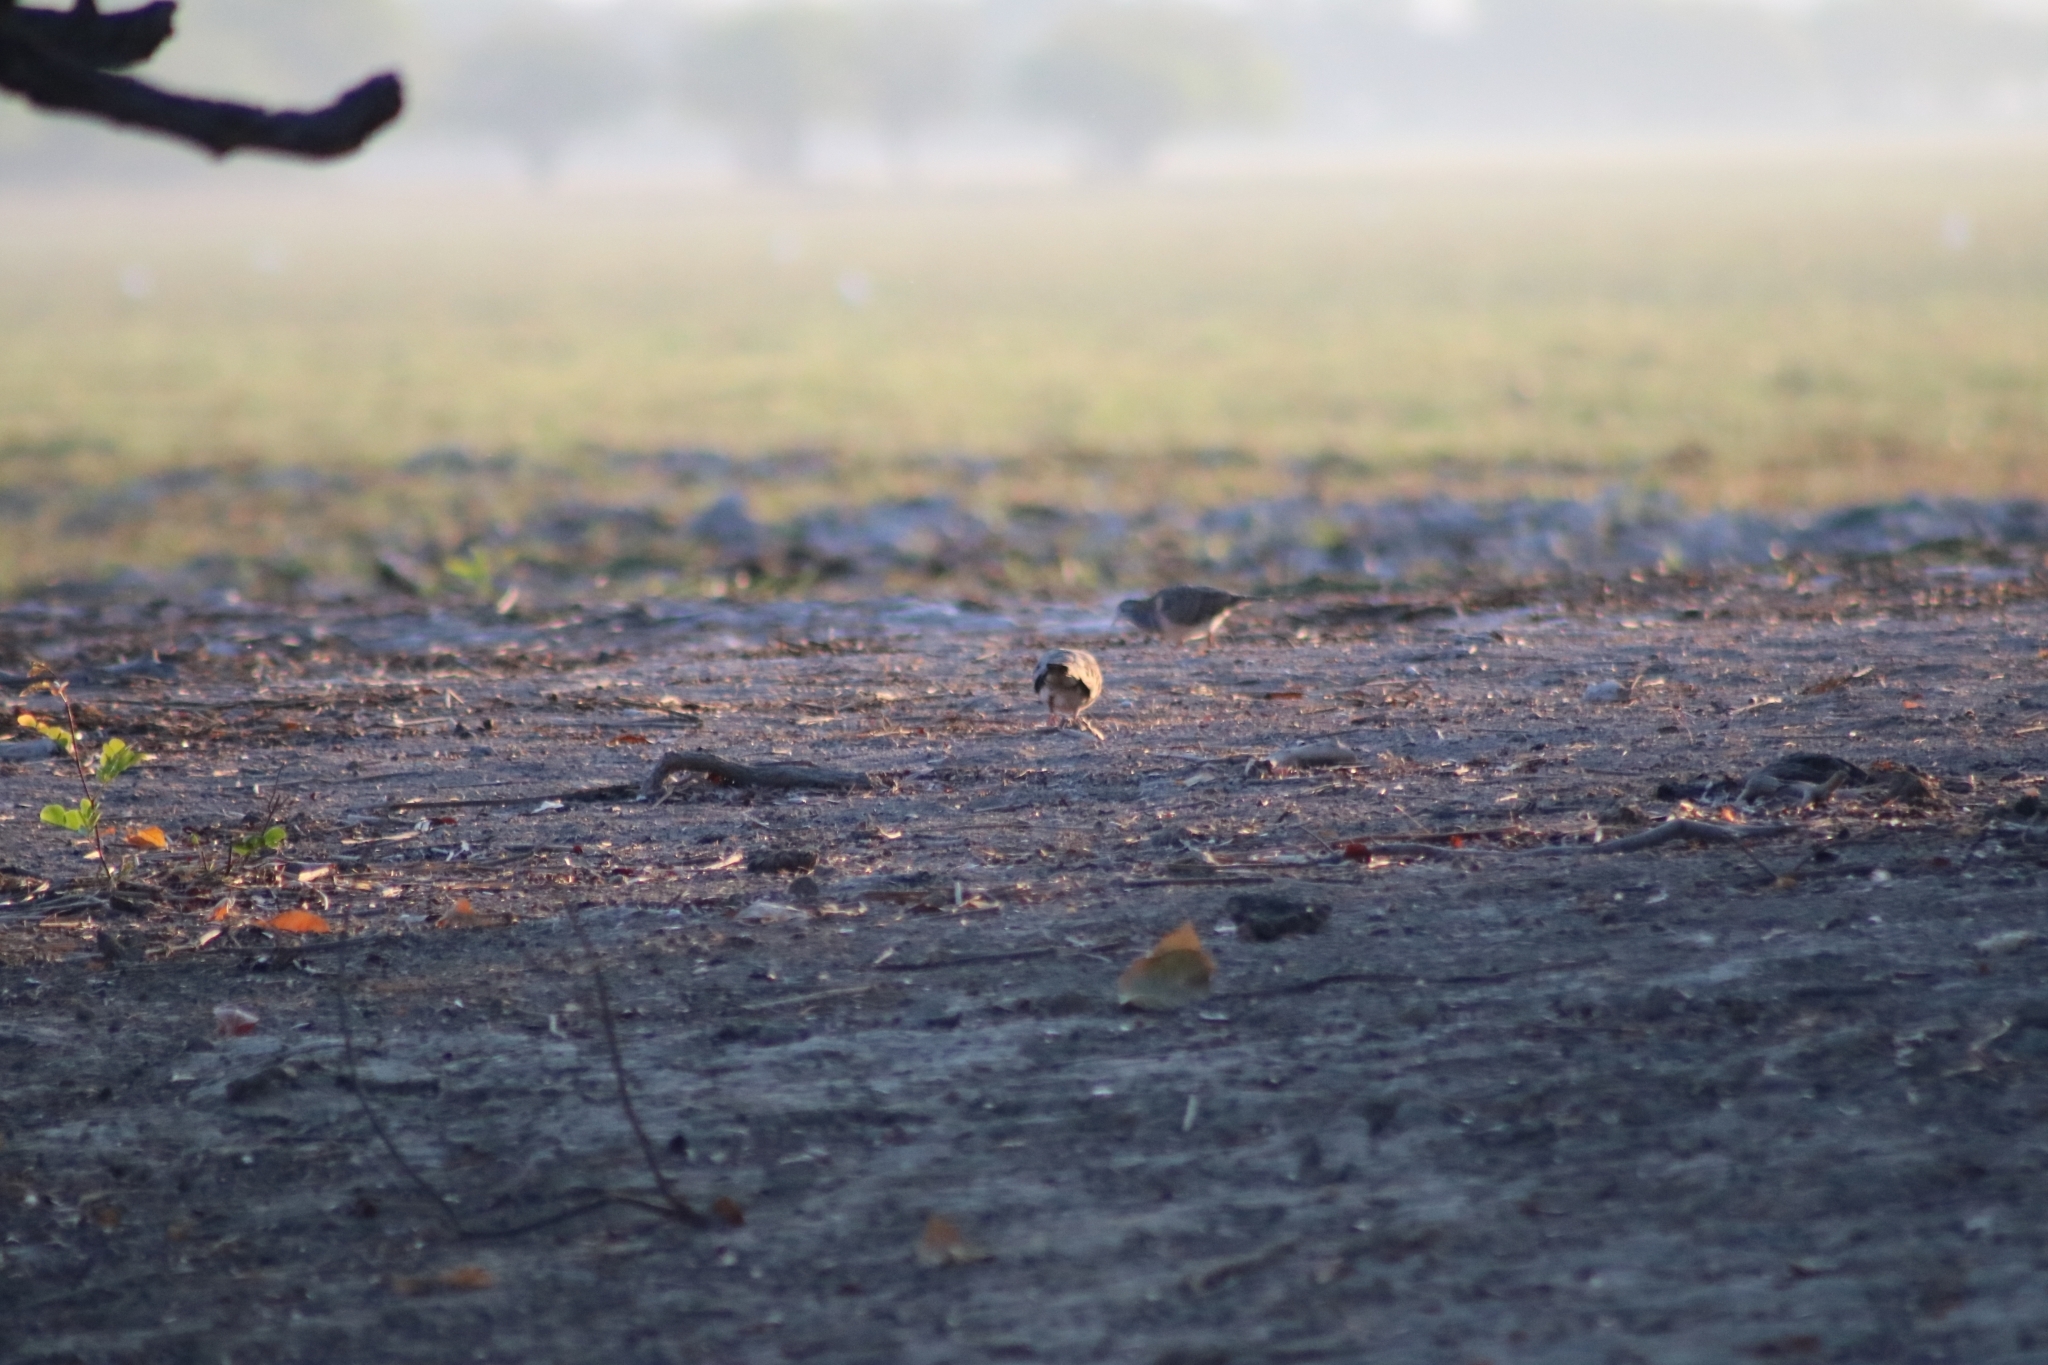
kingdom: Animalia
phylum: Chordata
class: Aves
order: Columbiformes
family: Columbidae
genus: Geopelia
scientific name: Geopelia humeralis
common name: Bar-shouldered dove
